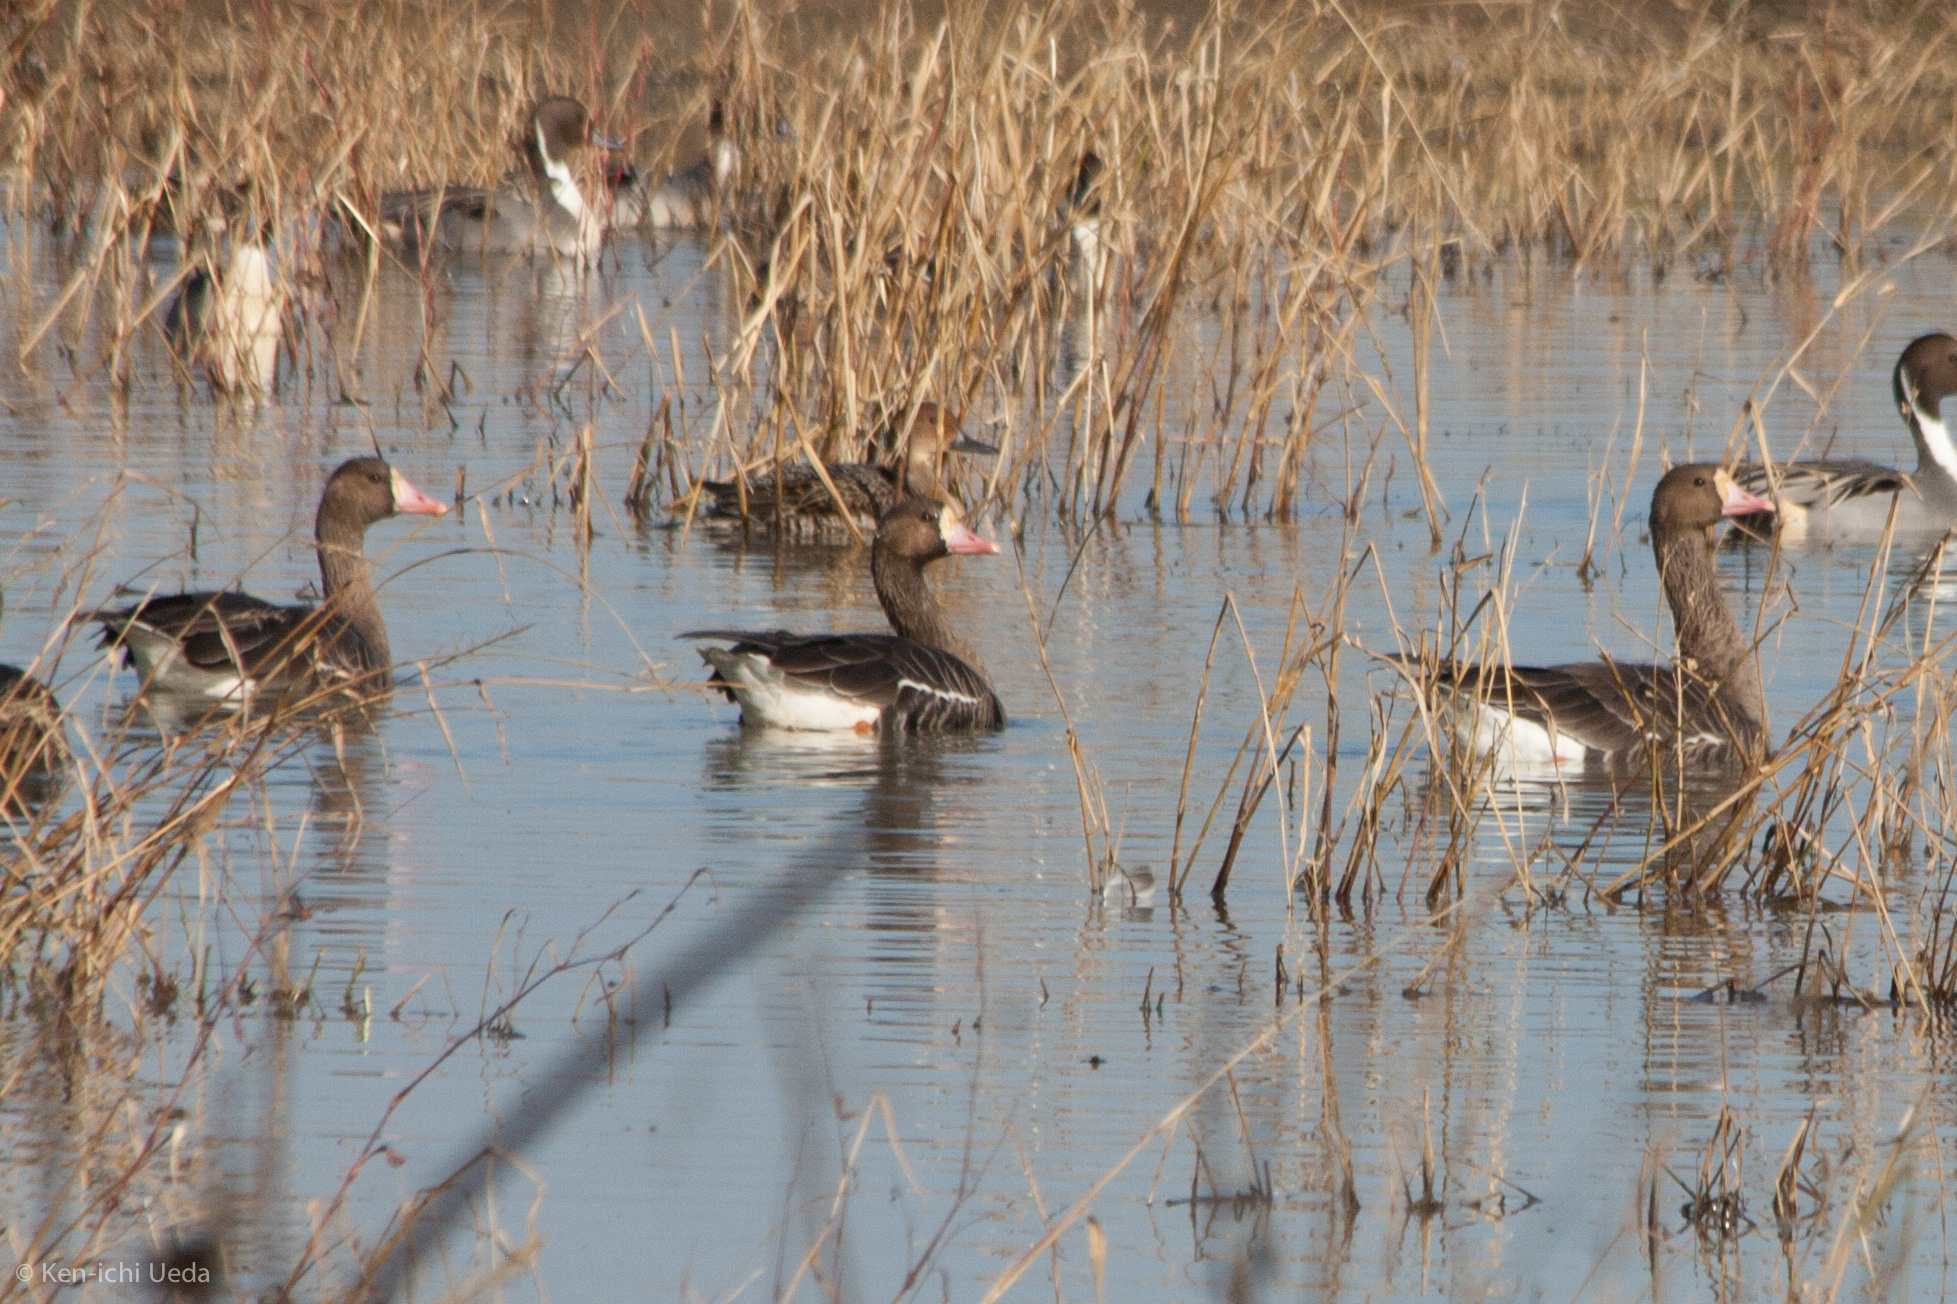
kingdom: Animalia
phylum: Chordata
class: Aves
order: Anseriformes
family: Anatidae
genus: Anser
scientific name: Anser albifrons
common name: Greater white-fronted goose
